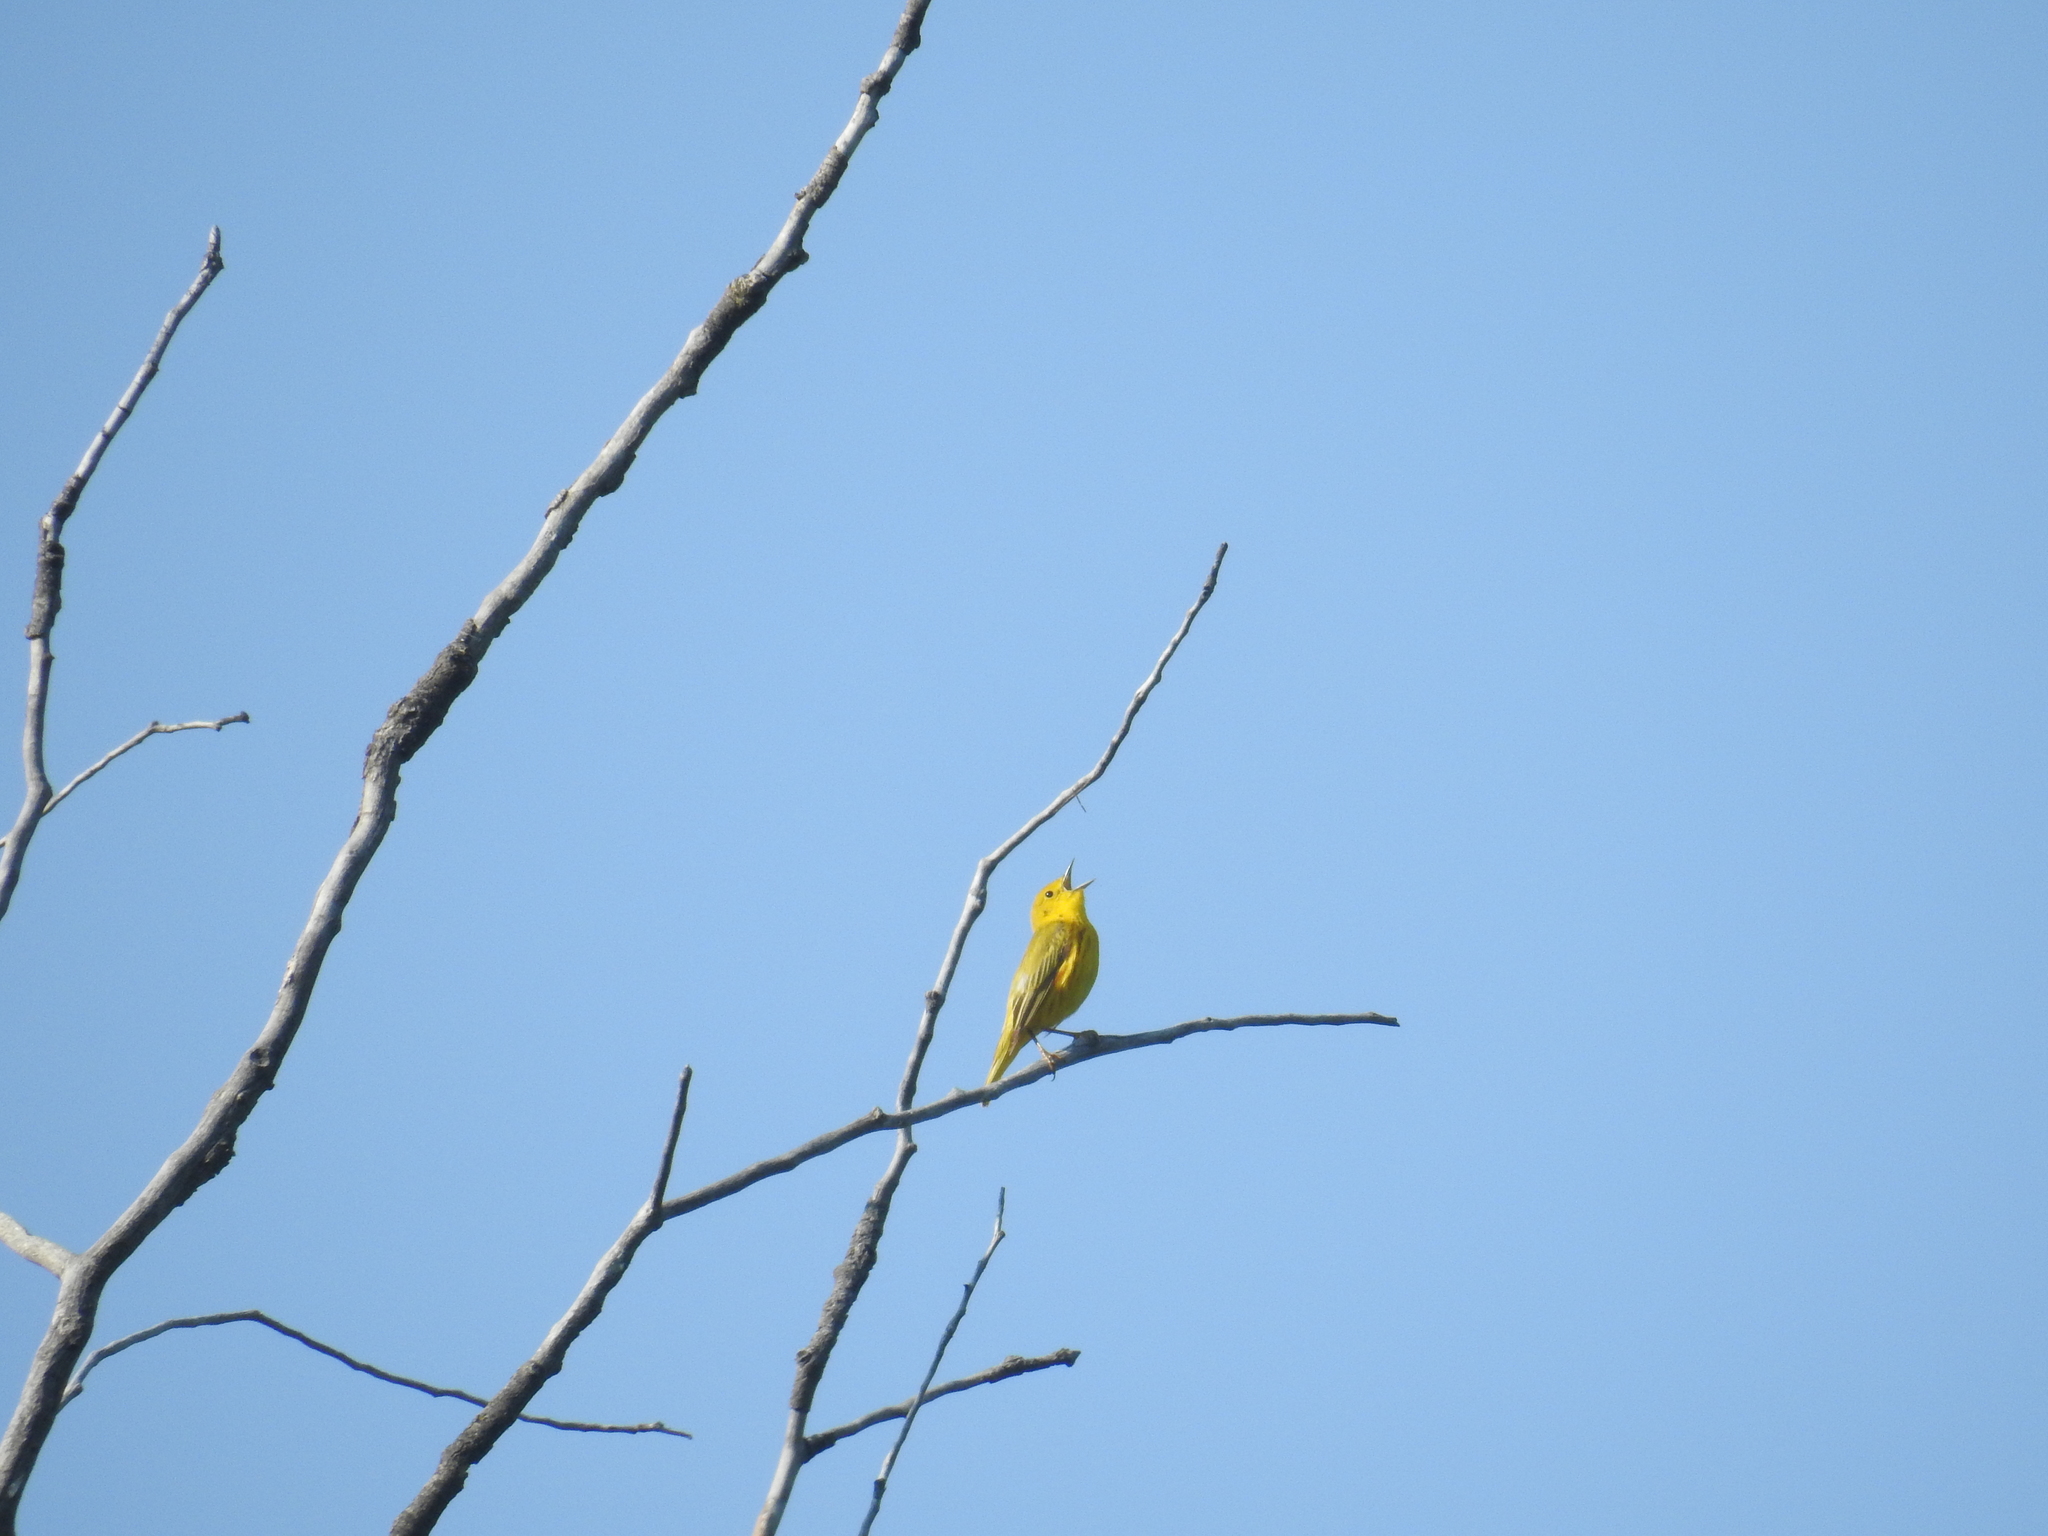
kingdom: Animalia
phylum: Chordata
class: Aves
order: Passeriformes
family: Parulidae
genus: Setophaga
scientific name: Setophaga petechia
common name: Yellow warbler
